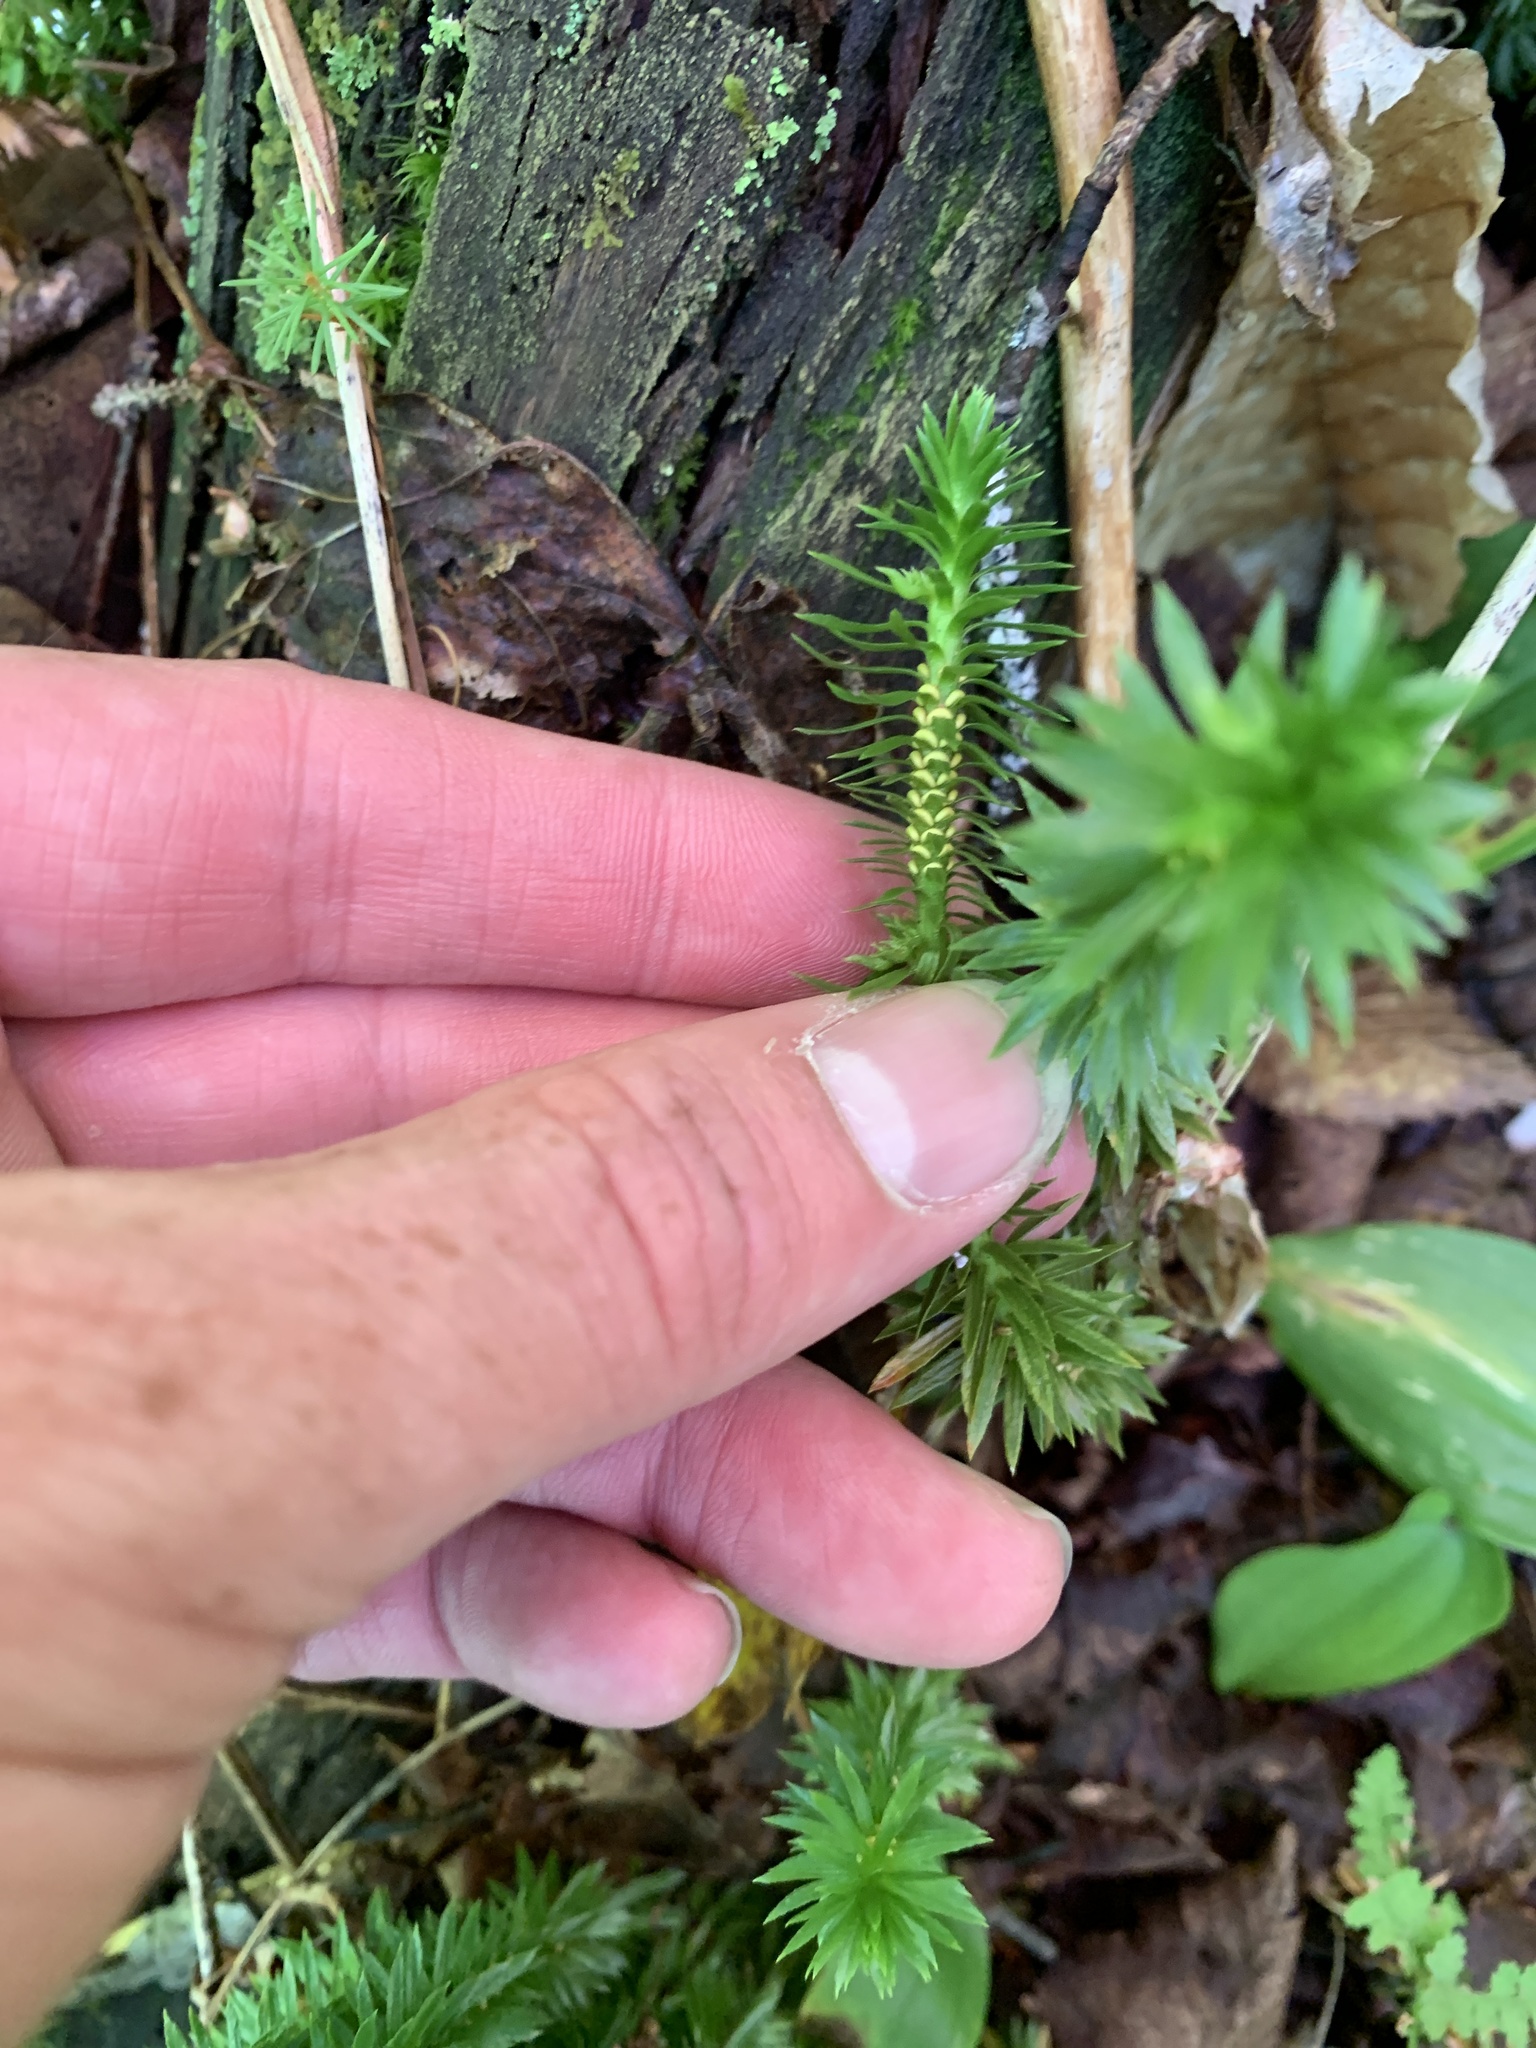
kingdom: Plantae
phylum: Tracheophyta
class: Lycopodiopsida
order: Lycopodiales
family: Lycopodiaceae
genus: Huperzia
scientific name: Huperzia lucidula
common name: Shining clubmoss
